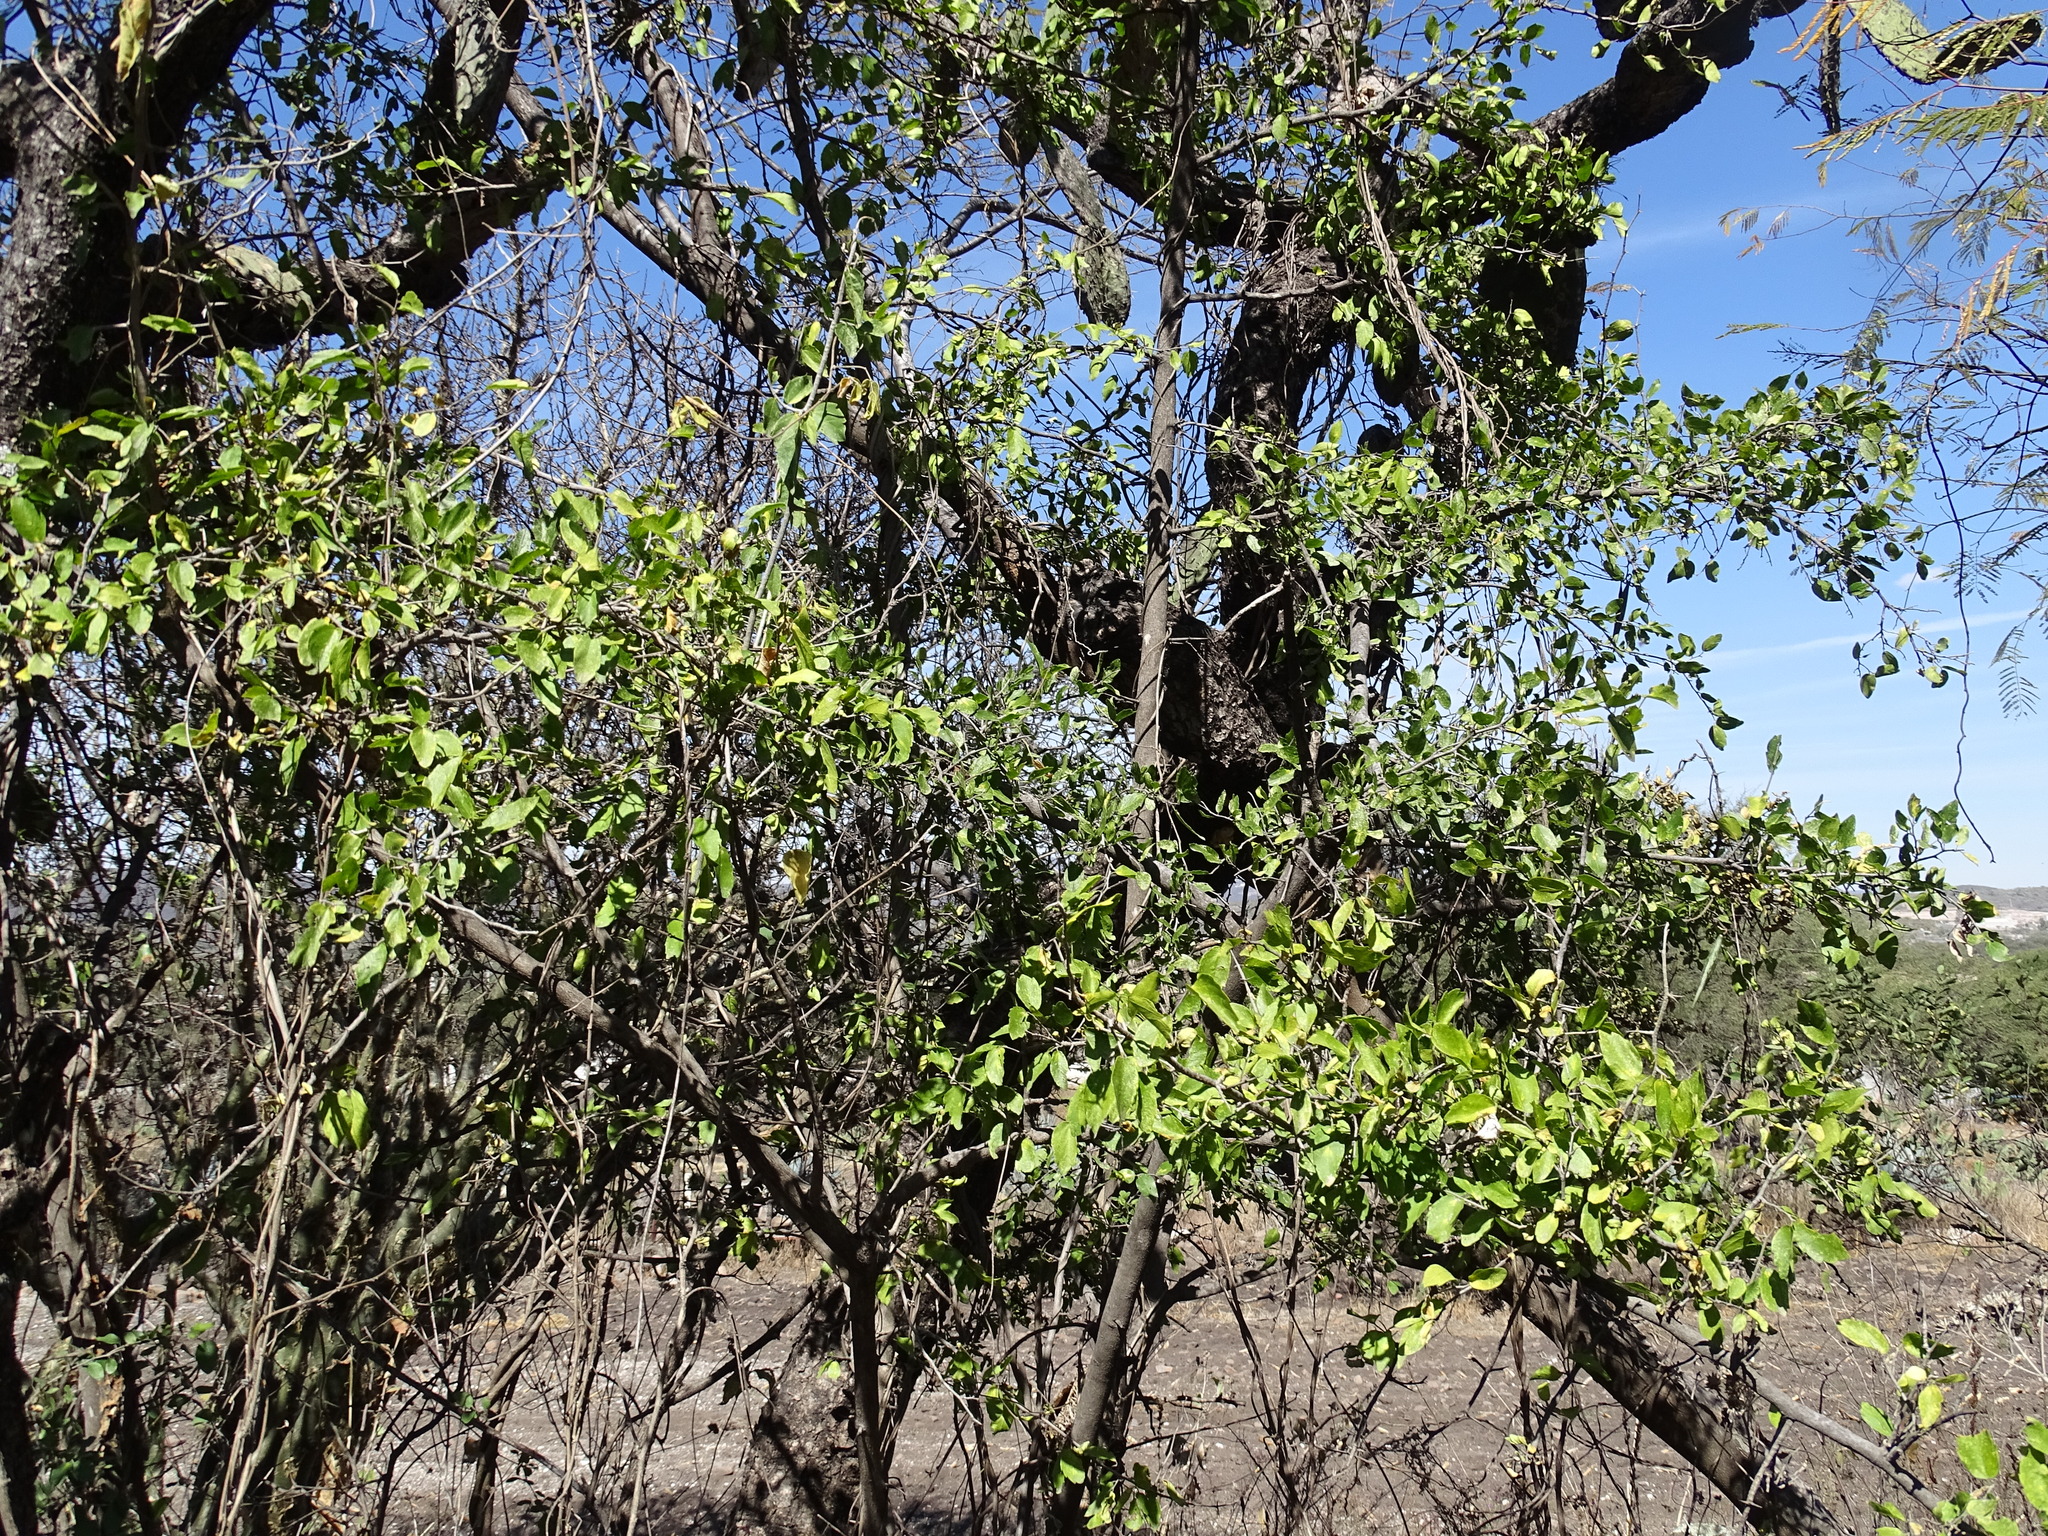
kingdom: Plantae
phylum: Tracheophyta
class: Magnoliopsida
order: Rosales
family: Cannabaceae
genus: Celtis
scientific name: Celtis pallida
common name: Desert hackberry
